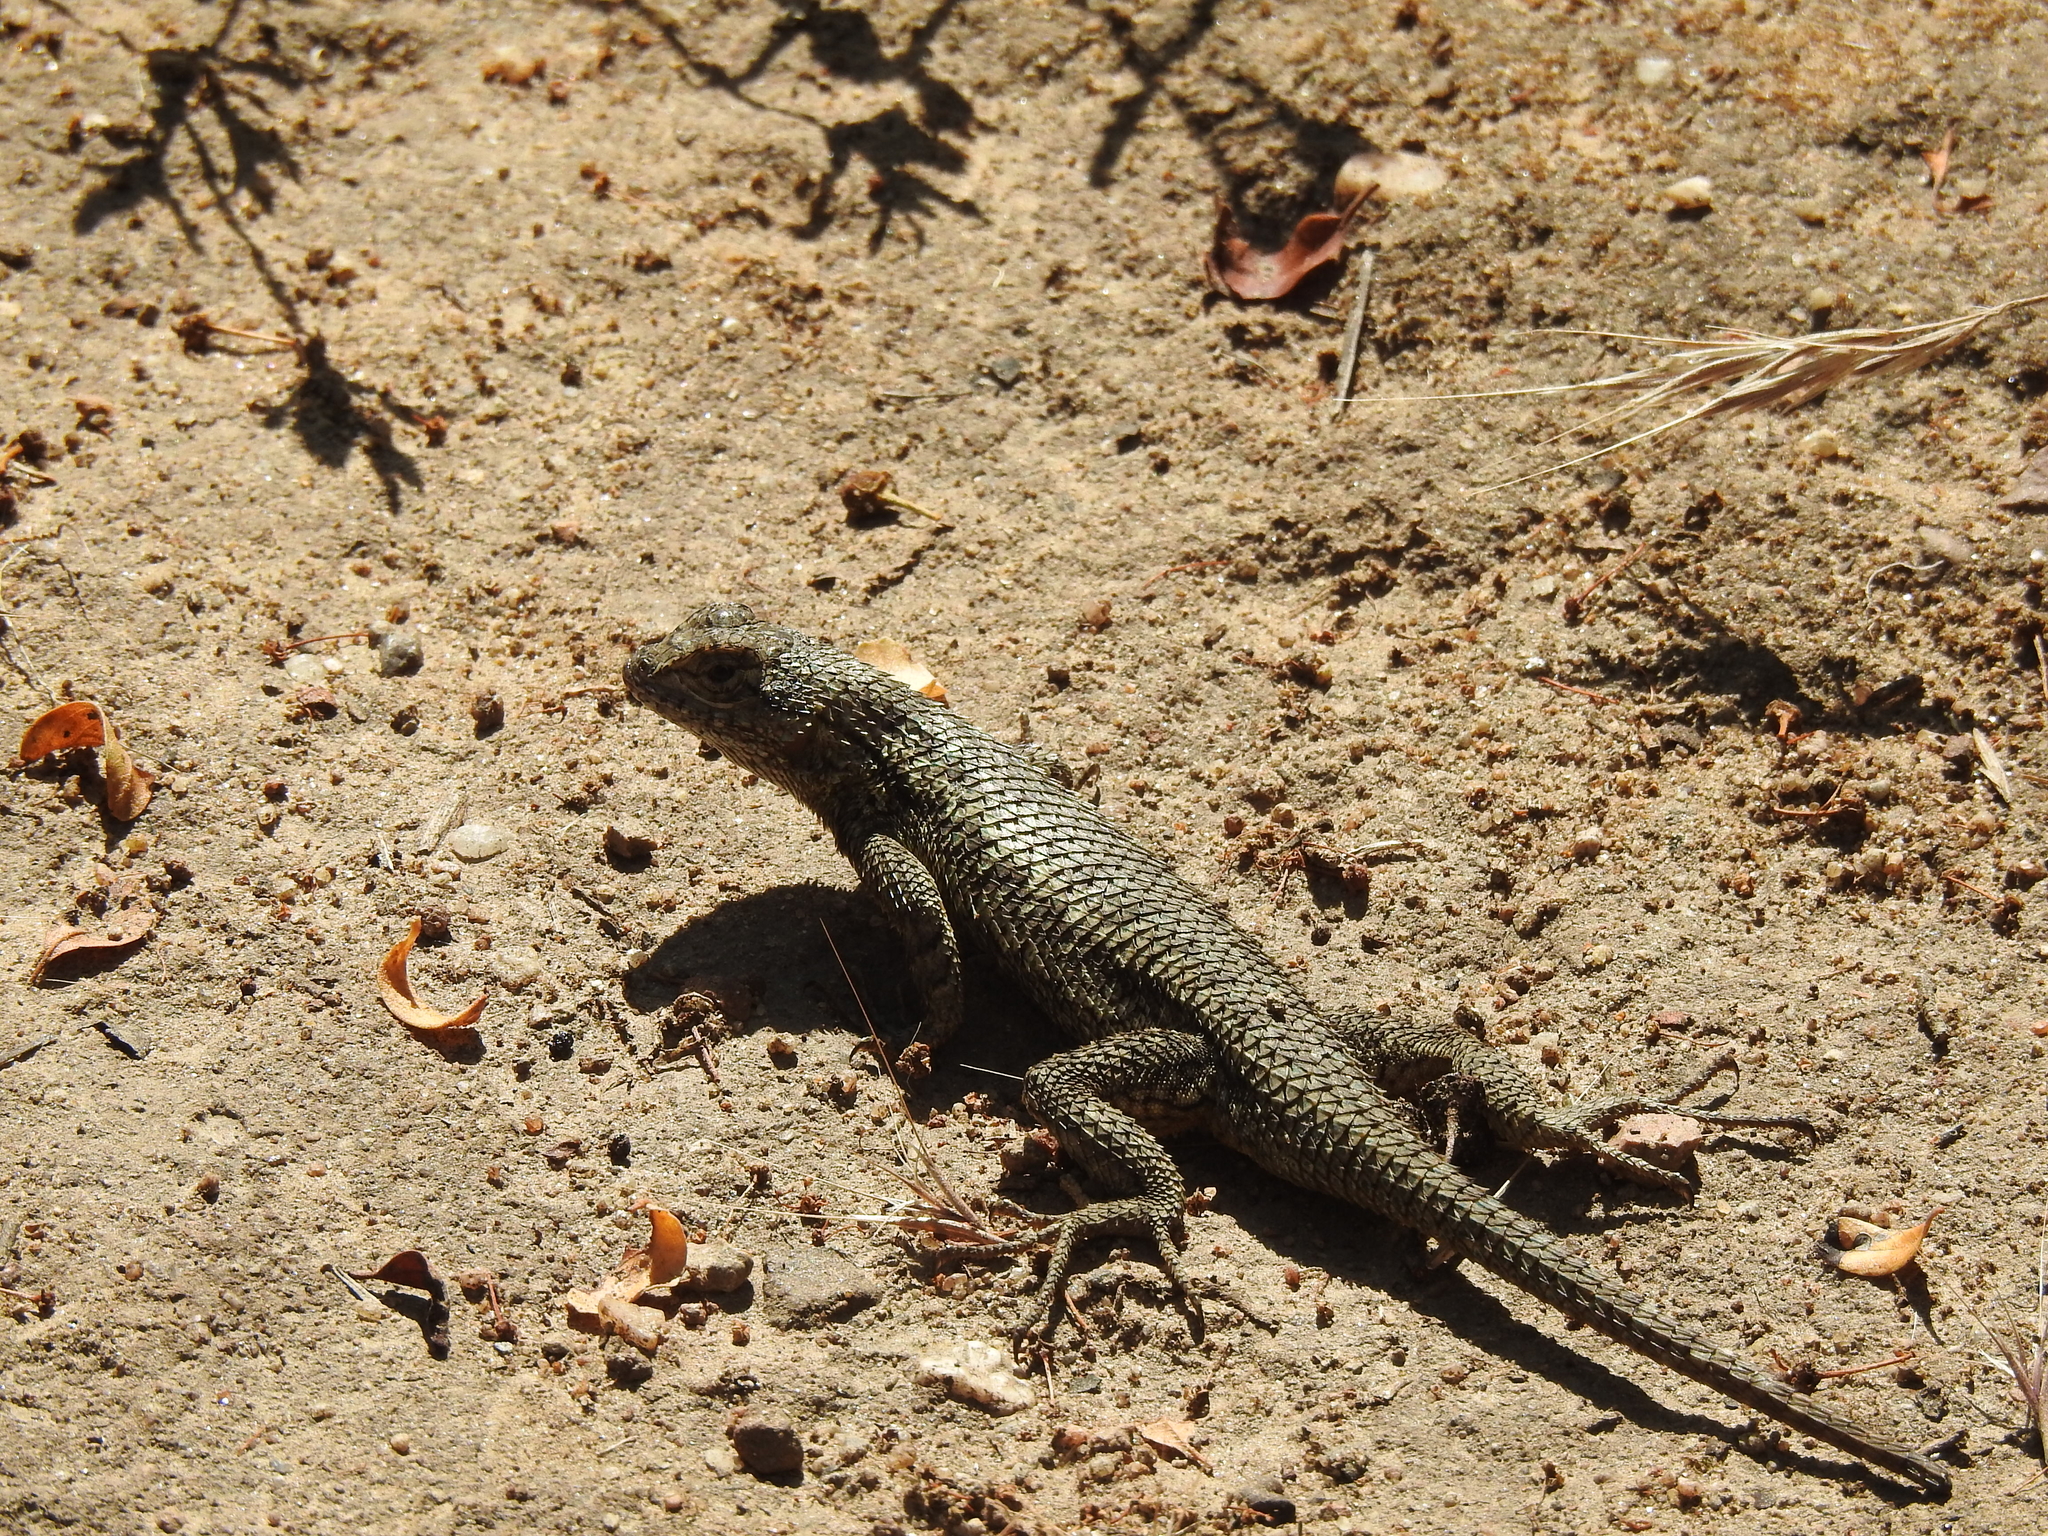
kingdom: Animalia
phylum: Chordata
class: Squamata
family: Phrynosomatidae
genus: Sceloporus
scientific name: Sceloporus occidentalis
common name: Western fence lizard
